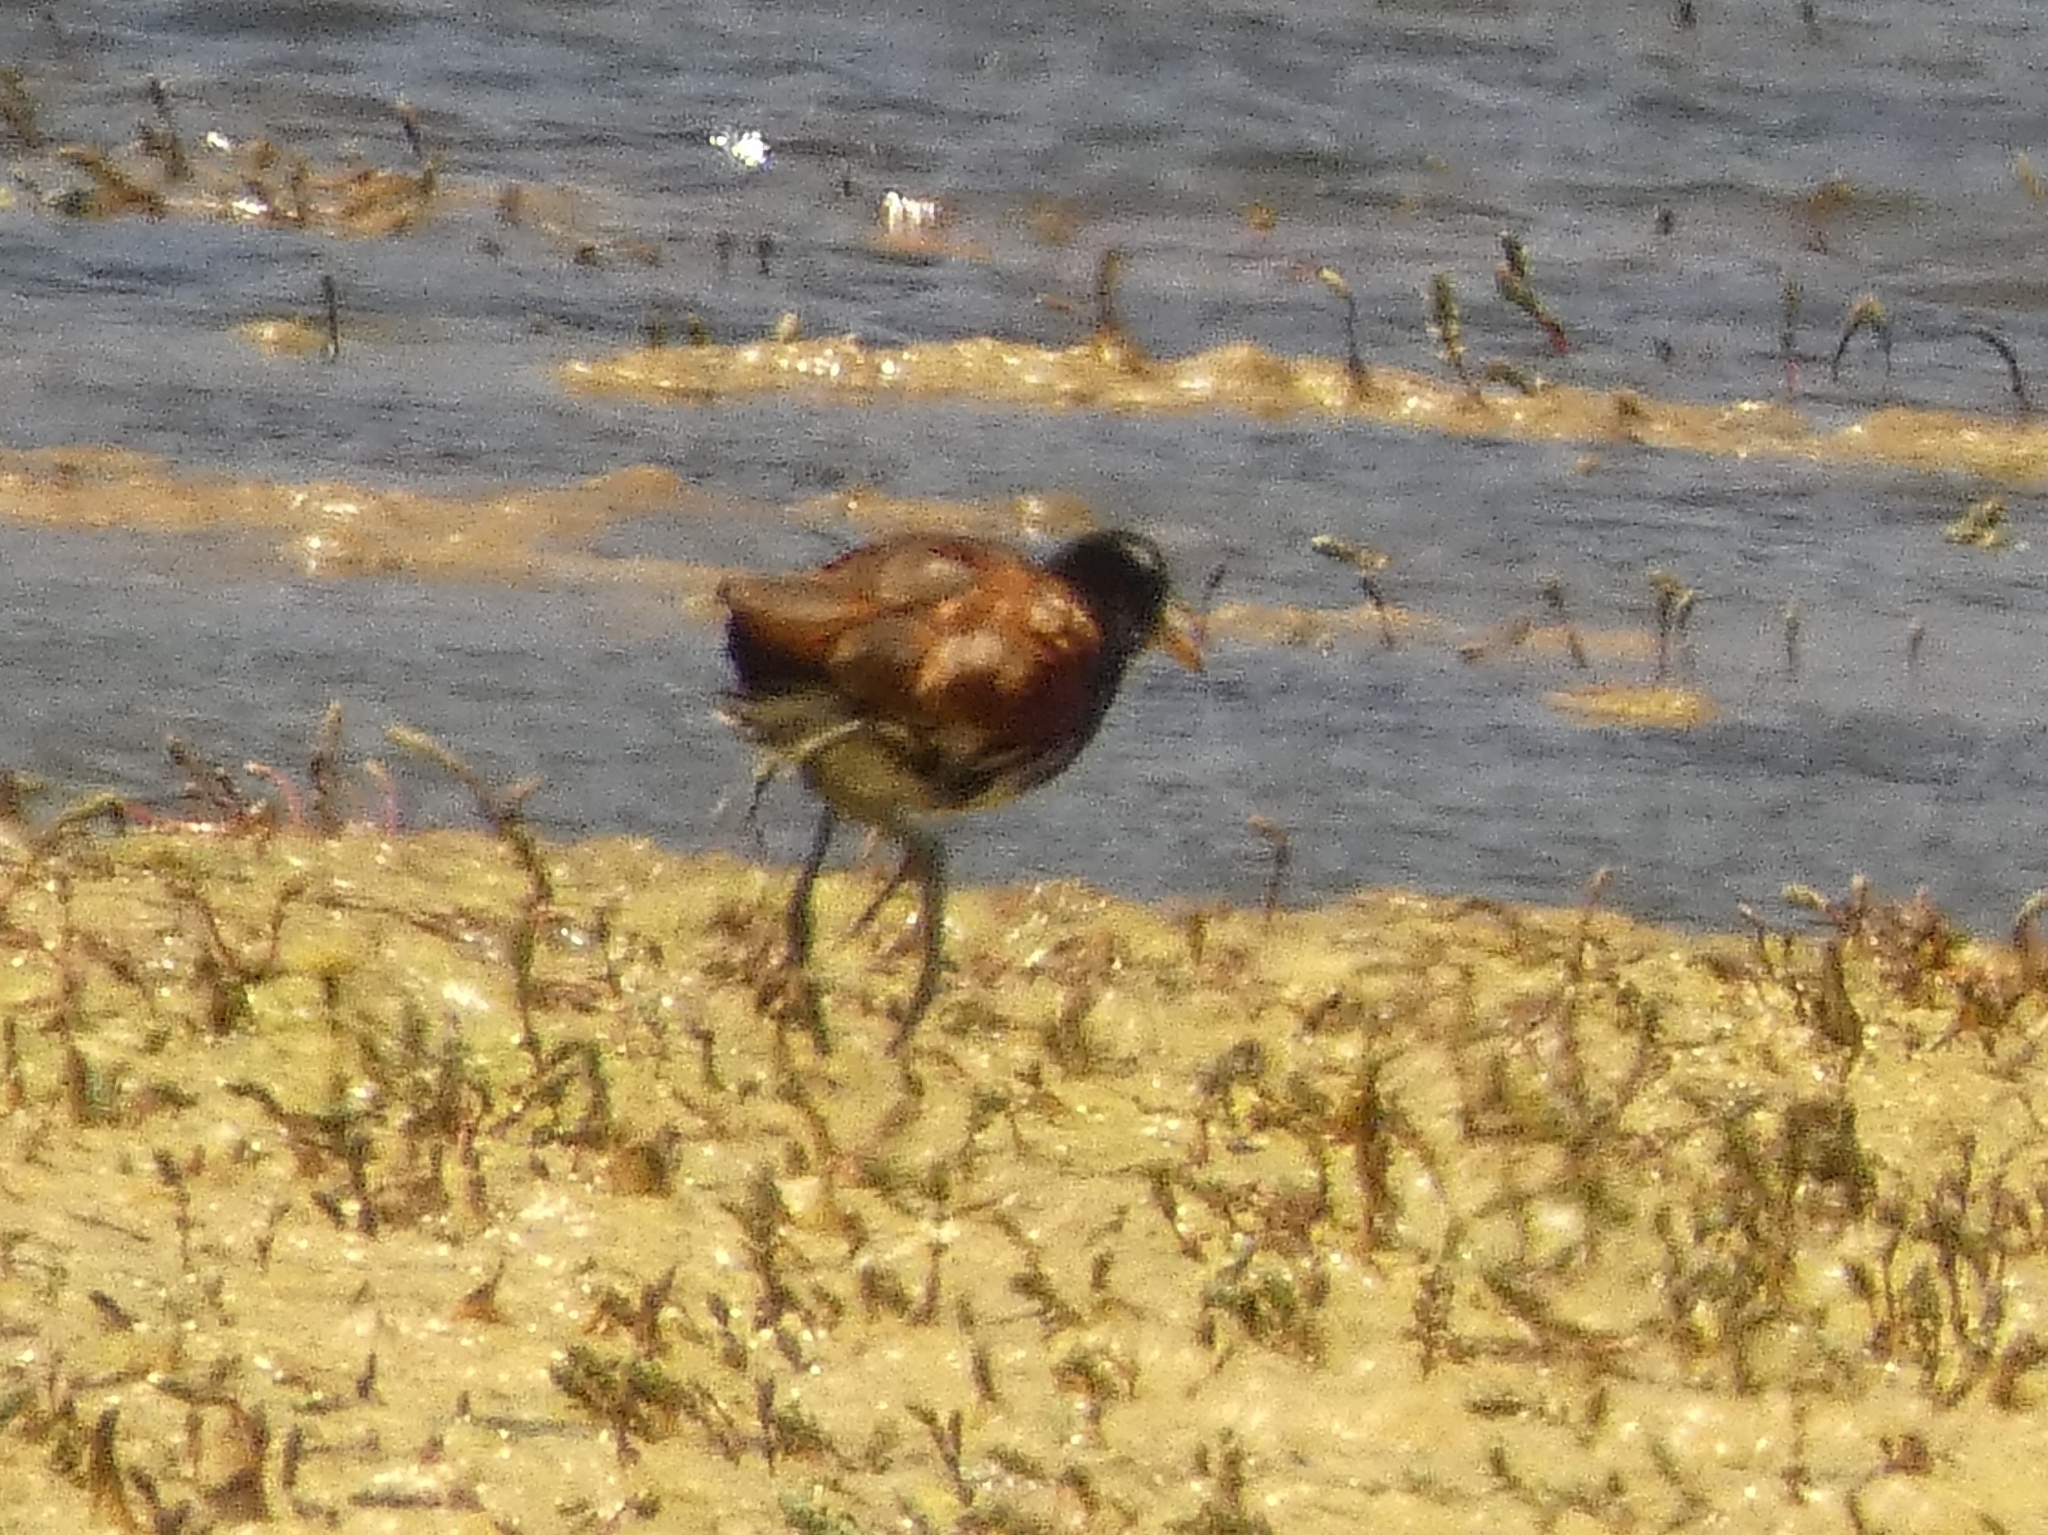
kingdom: Animalia
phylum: Chordata
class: Aves
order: Charadriiformes
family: Jacanidae
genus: Jacana
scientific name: Jacana jacana
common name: Wattled jacana
